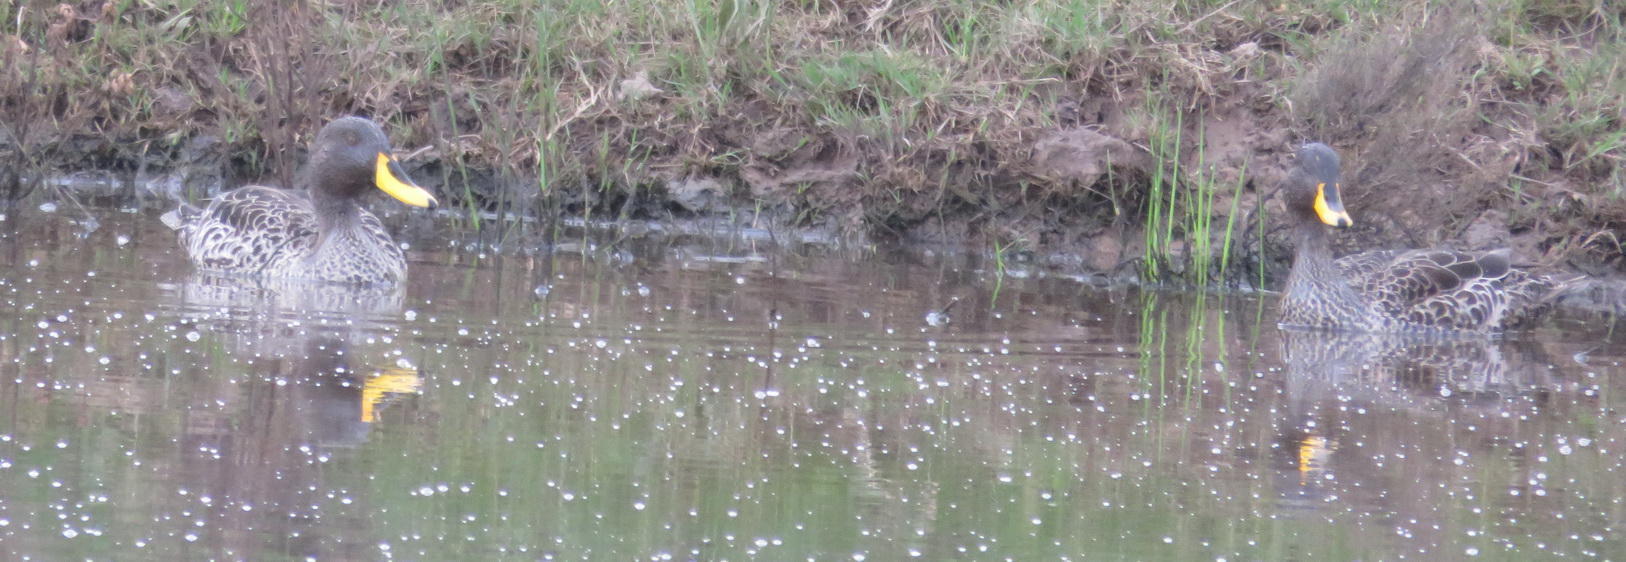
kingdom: Animalia
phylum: Chordata
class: Aves
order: Anseriformes
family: Anatidae
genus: Anas
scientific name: Anas undulata
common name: Yellow-billed duck
